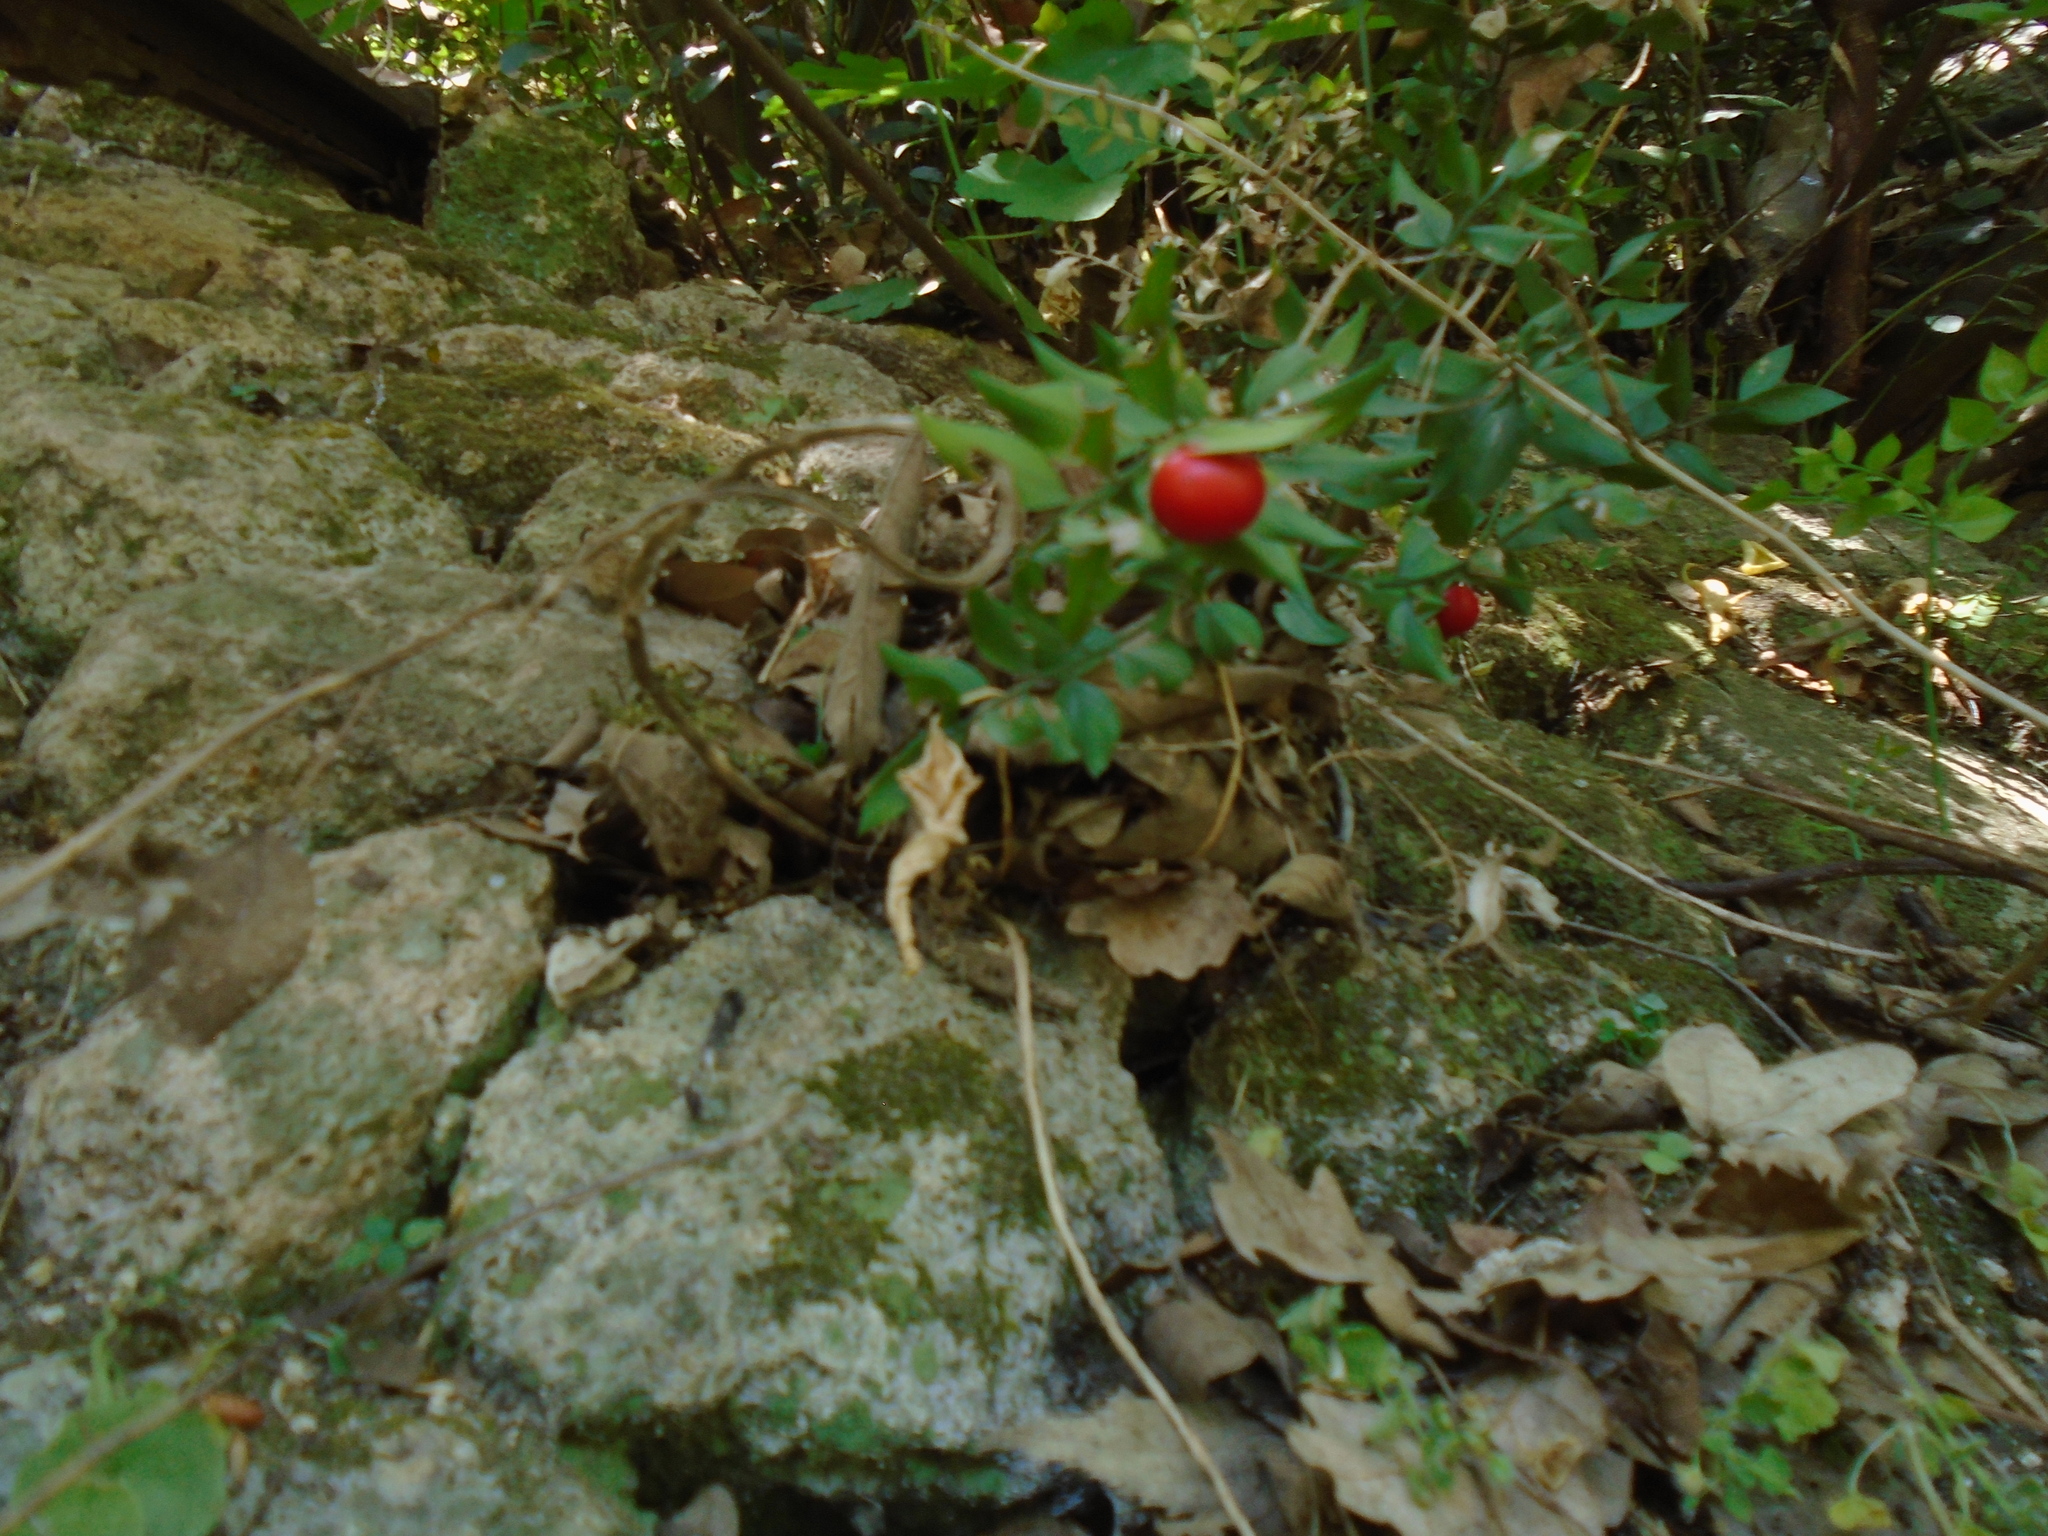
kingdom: Plantae
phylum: Tracheophyta
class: Liliopsida
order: Asparagales
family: Asparagaceae
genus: Ruscus
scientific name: Ruscus aculeatus
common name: Butcher's-broom
